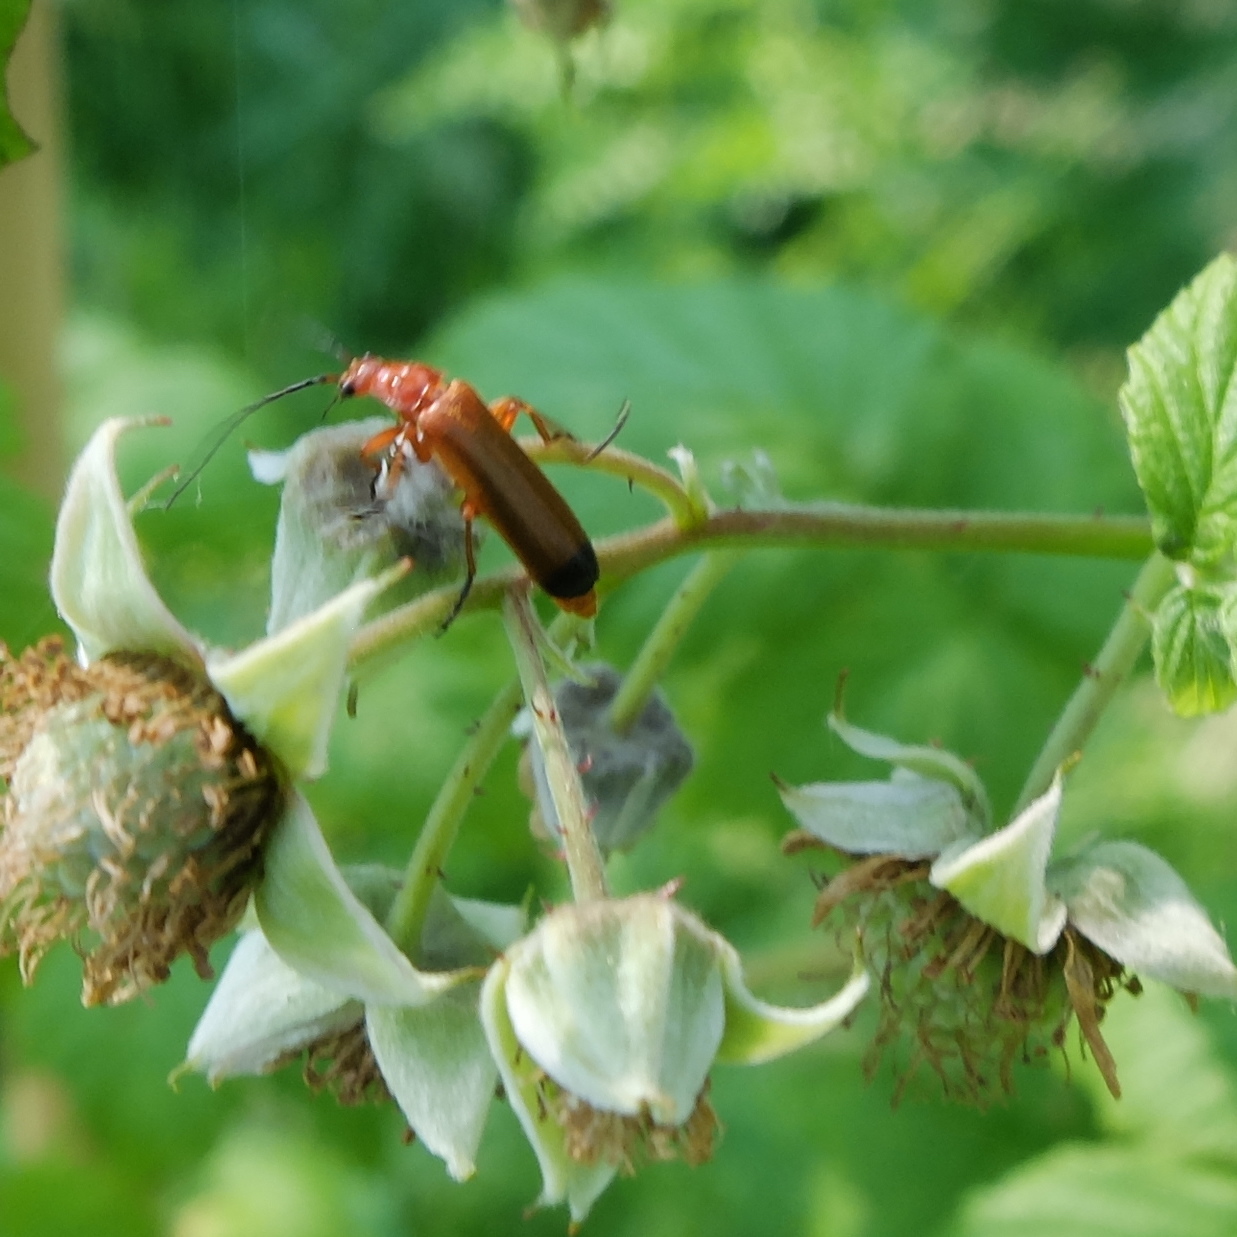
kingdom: Animalia
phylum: Arthropoda
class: Insecta
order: Coleoptera
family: Cantharidae
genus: Rhagonycha
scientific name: Rhagonycha fulva
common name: Common red soldier beetle
